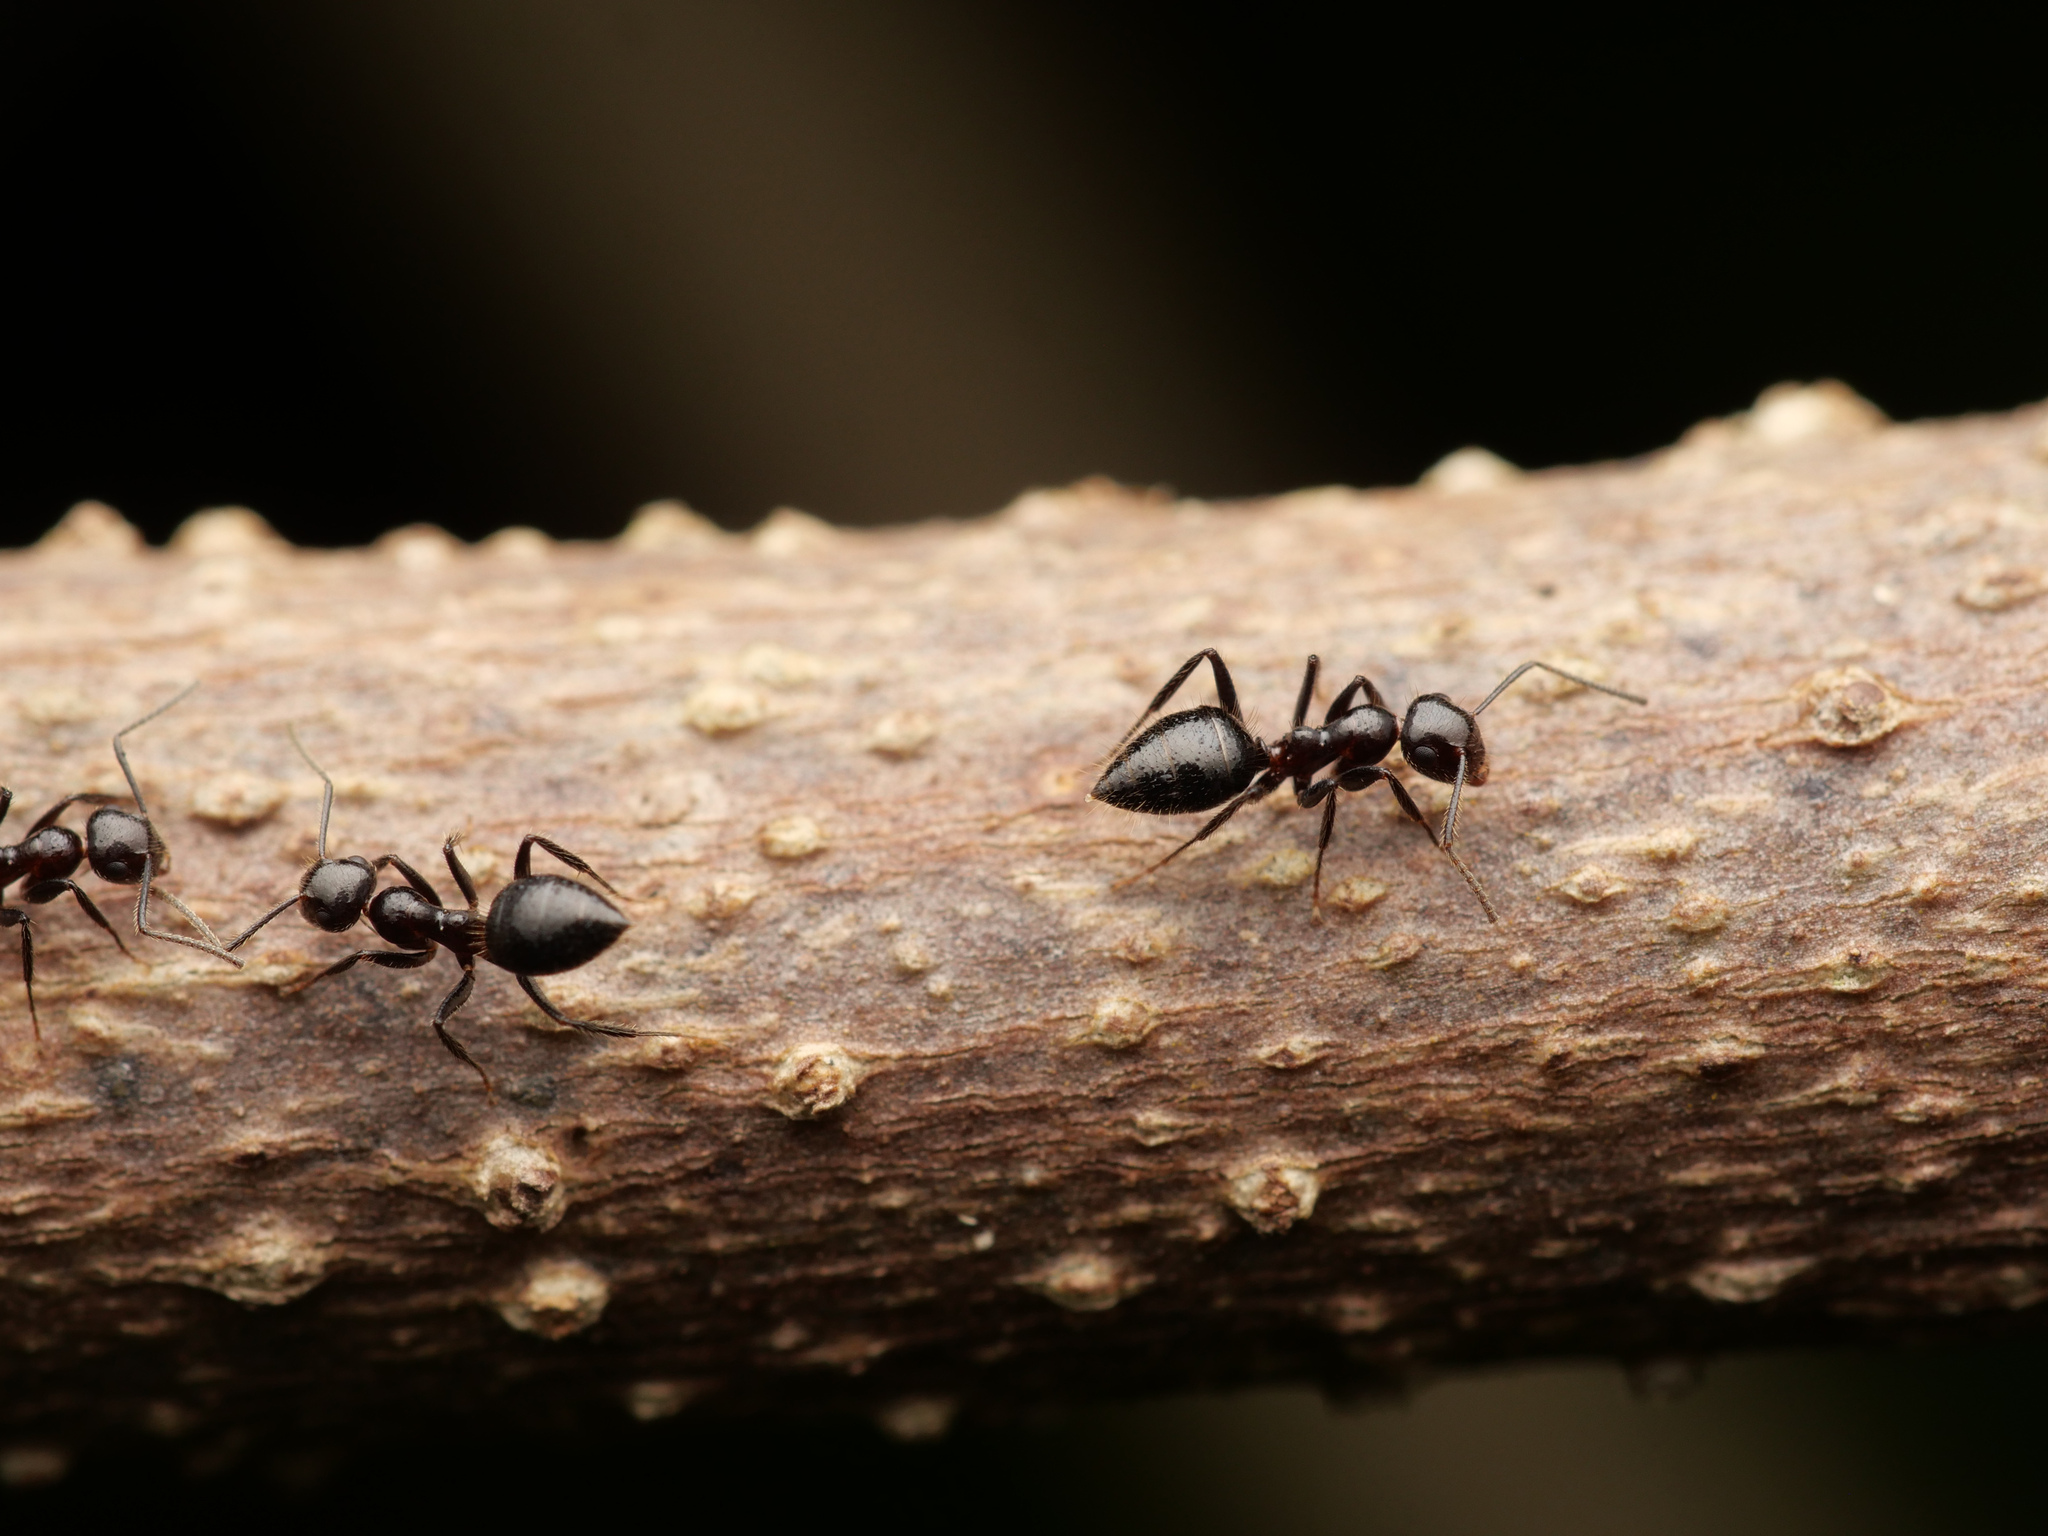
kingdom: Animalia
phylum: Arthropoda
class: Insecta
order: Hymenoptera
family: Formicidae
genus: Camponotus
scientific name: Camponotus vitreus
